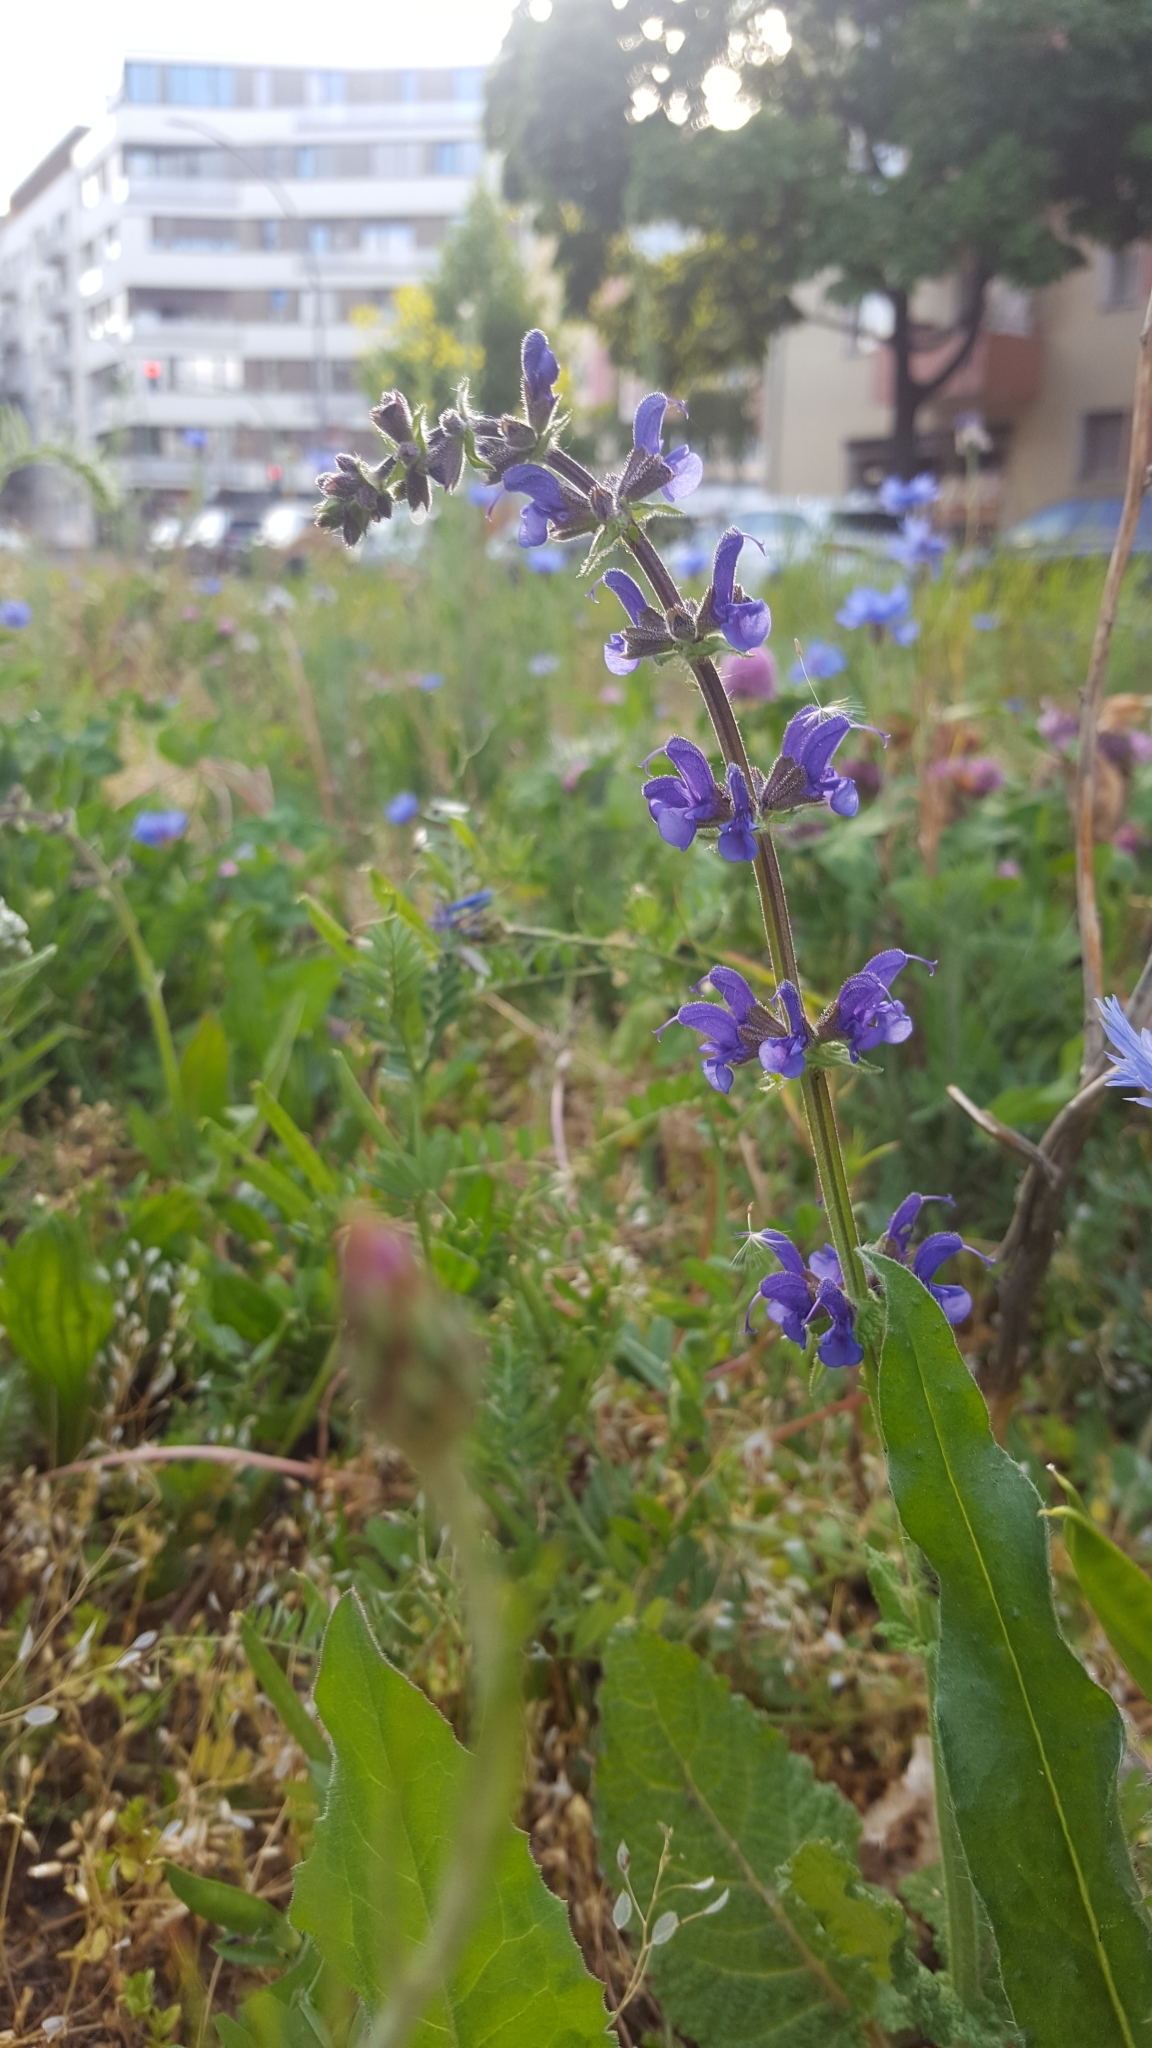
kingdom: Plantae
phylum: Tracheophyta
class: Magnoliopsida
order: Lamiales
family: Lamiaceae
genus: Salvia
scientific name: Salvia pratensis
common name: Meadow sage
